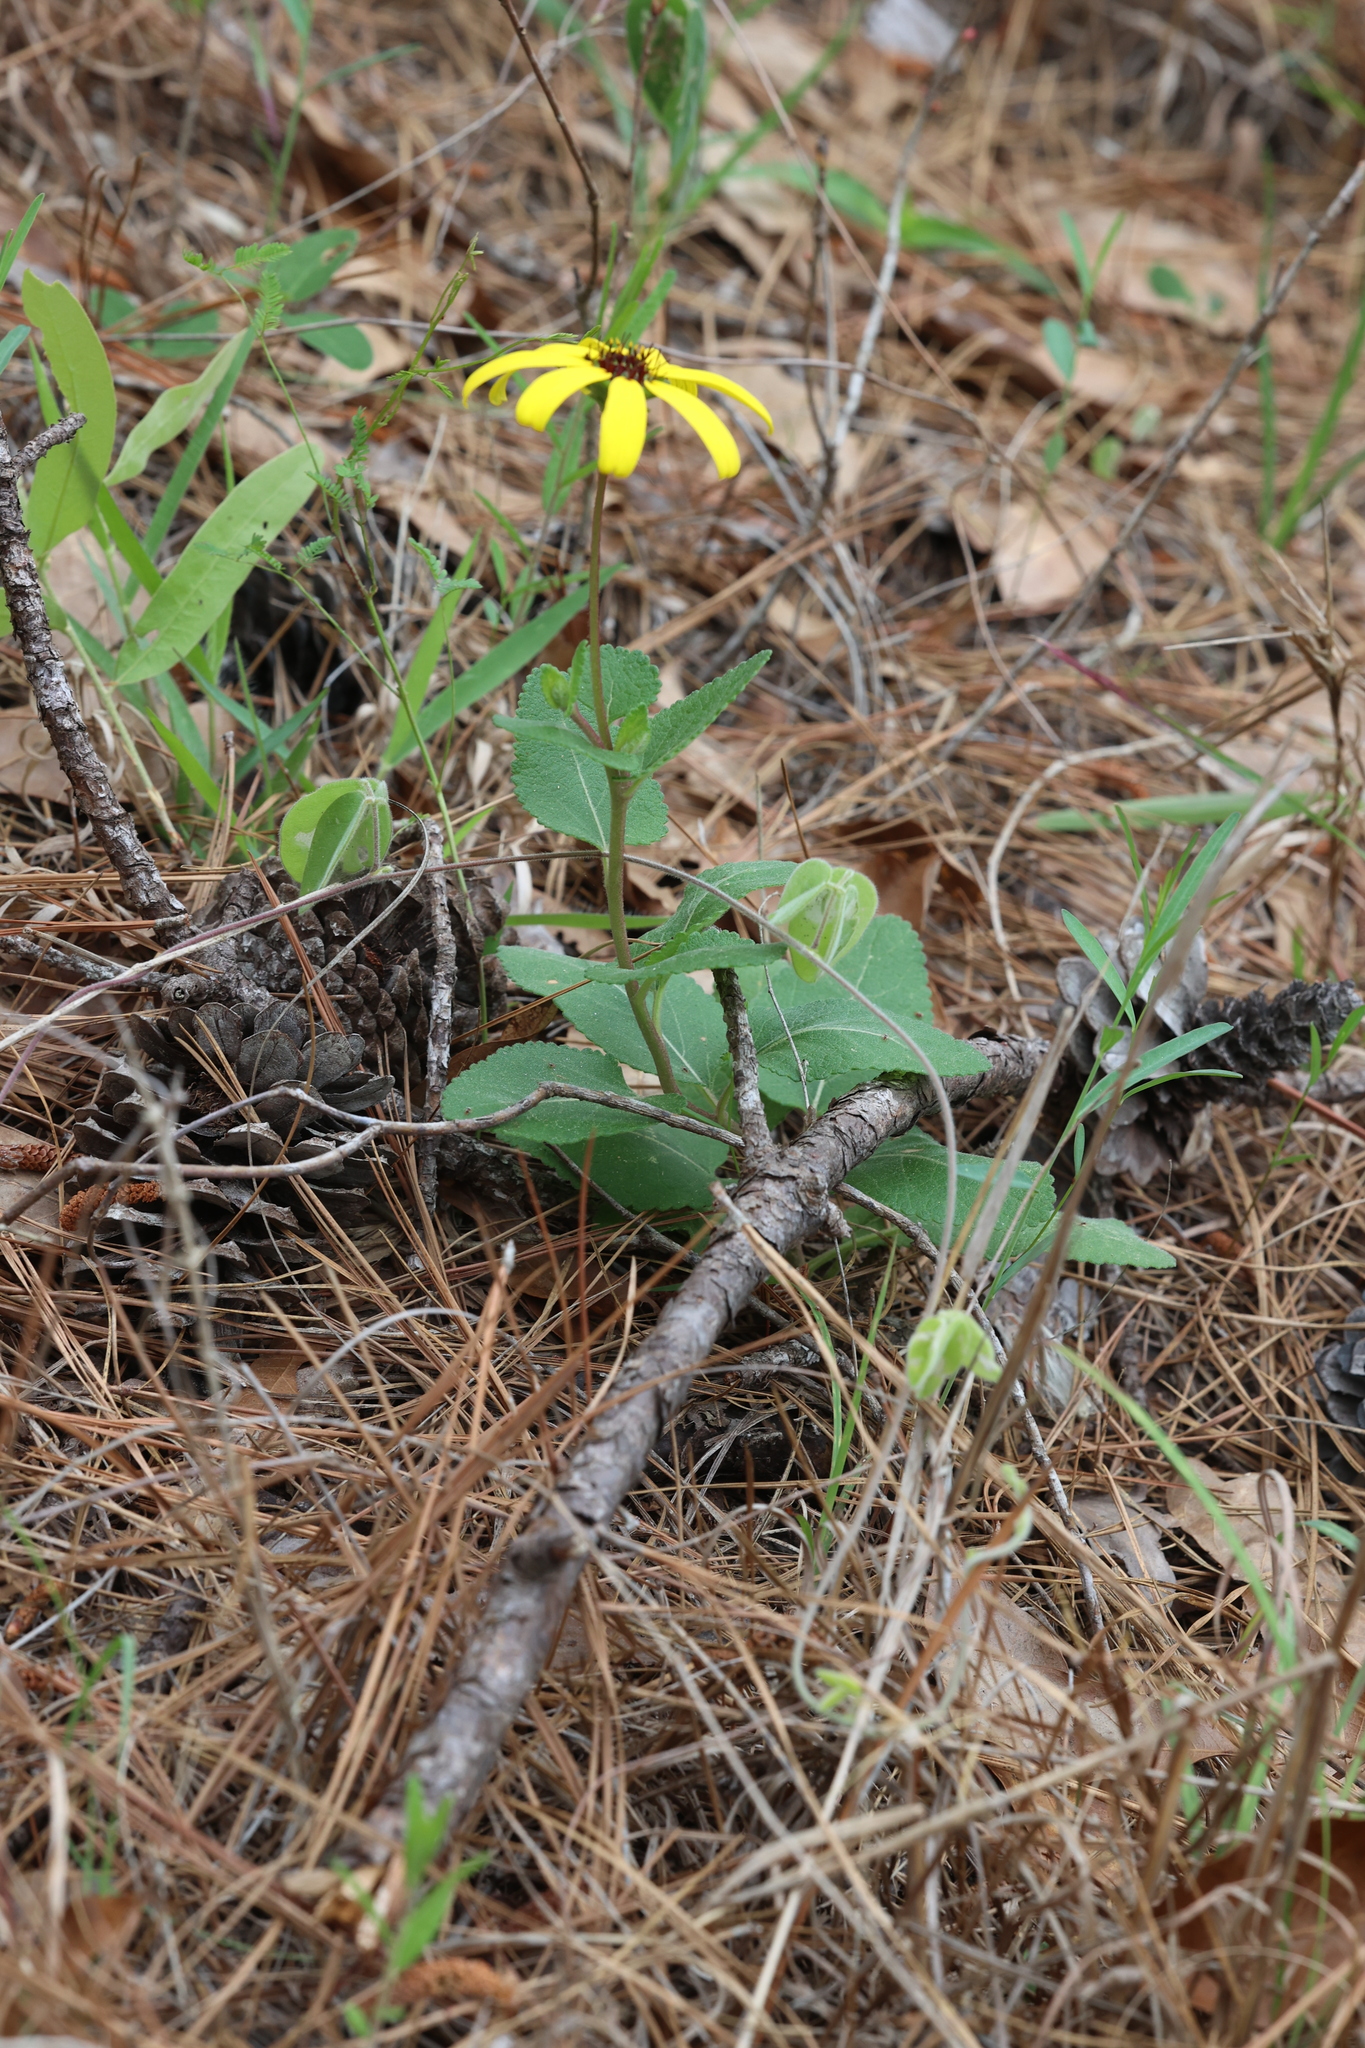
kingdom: Plantae
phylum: Tracheophyta
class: Magnoliopsida
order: Asterales
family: Asteraceae
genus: Berlandiera
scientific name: Berlandiera pumila
